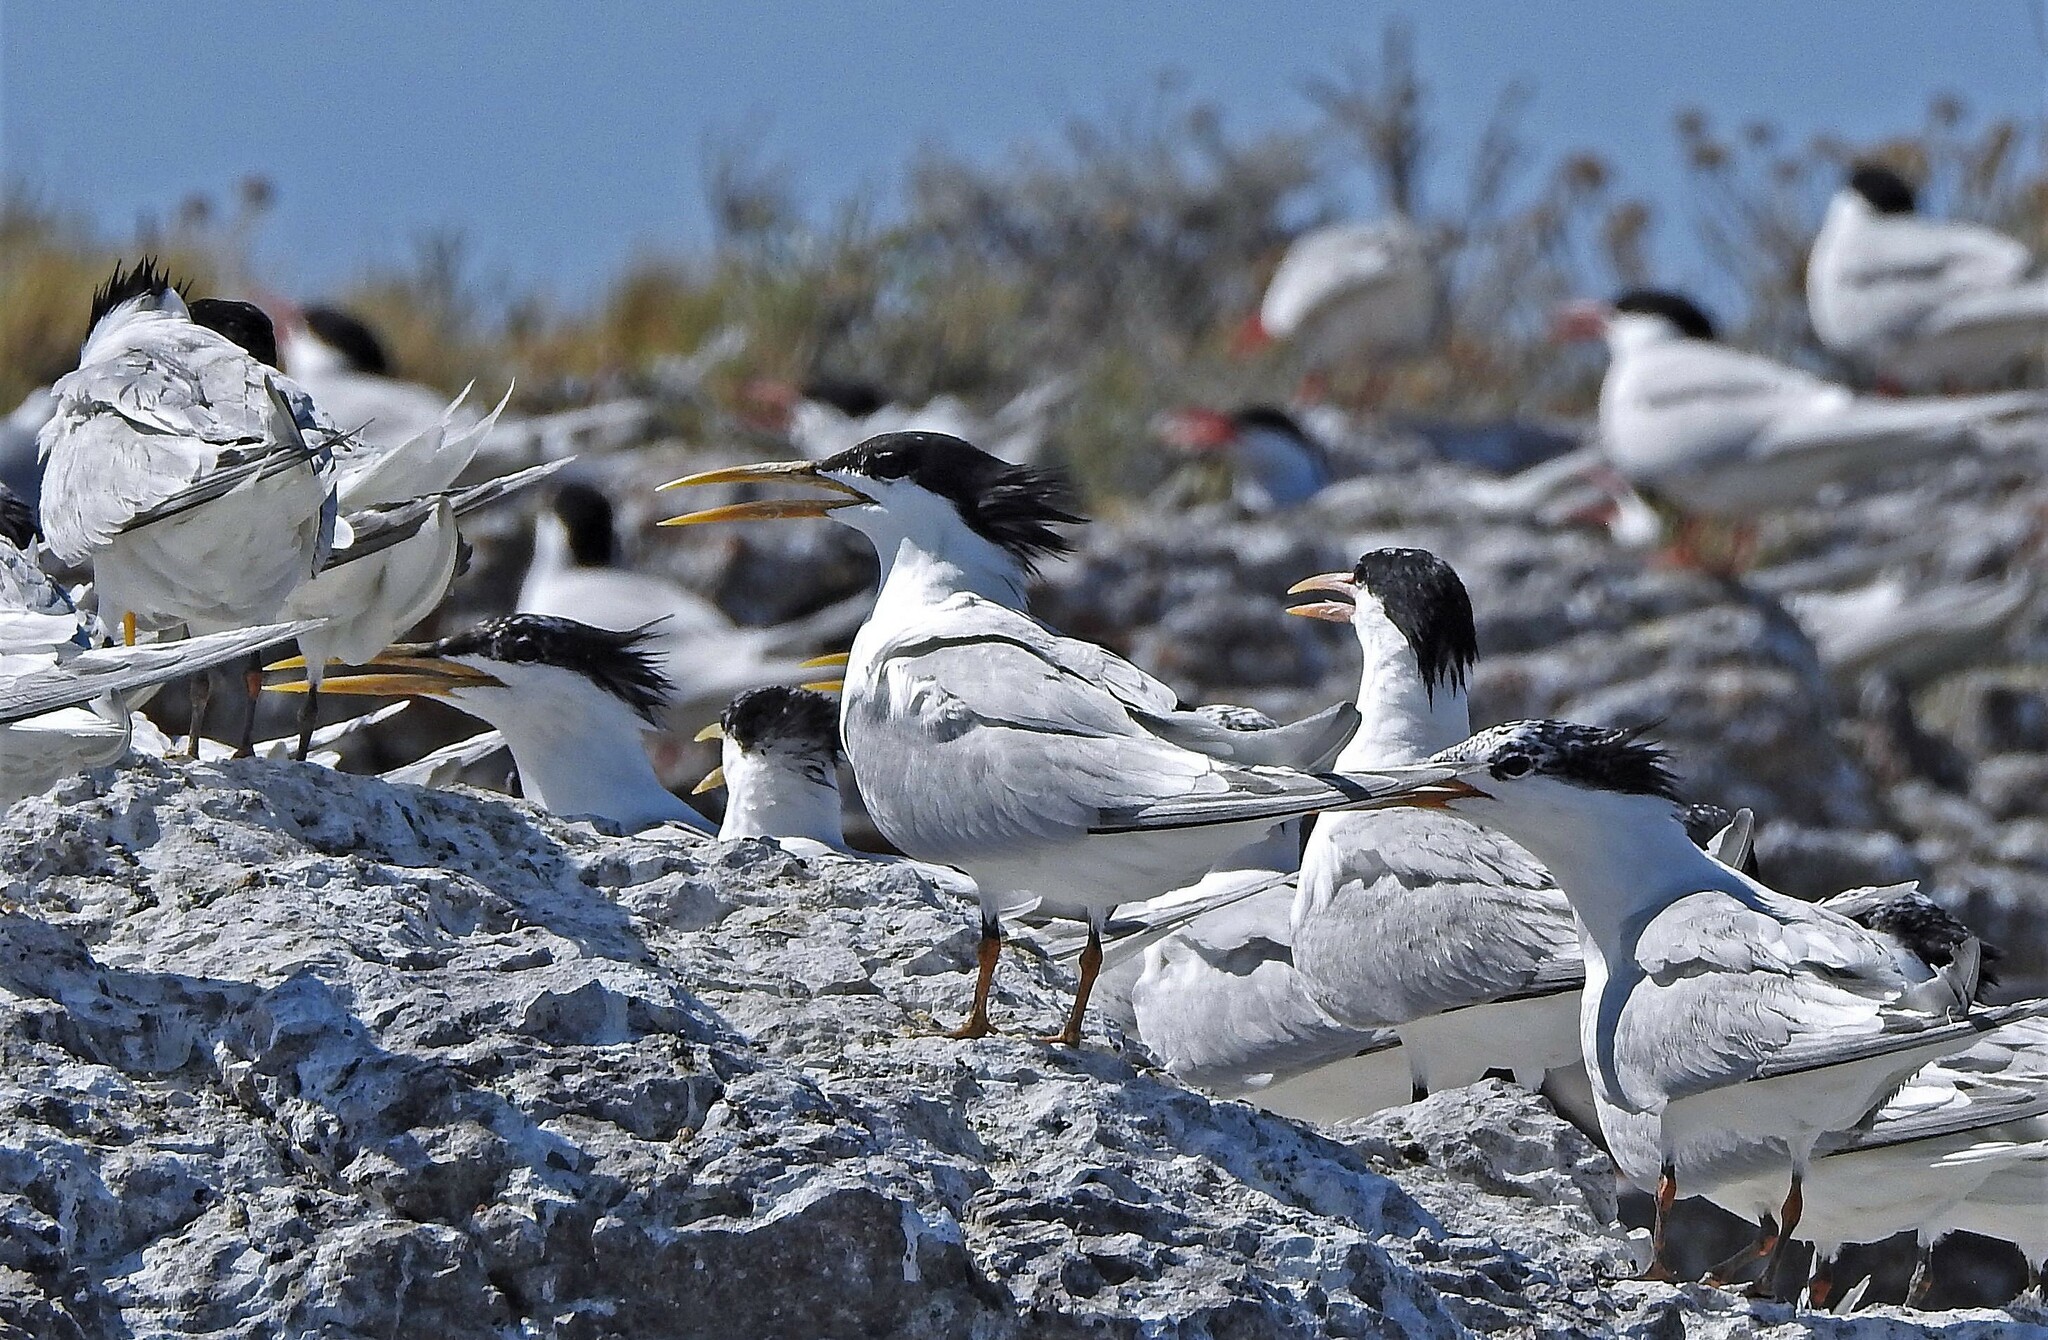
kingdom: Animalia
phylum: Chordata
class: Aves
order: Charadriiformes
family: Laridae
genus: Thalasseus
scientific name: Thalasseus acuflavidus
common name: Cabot's tern
